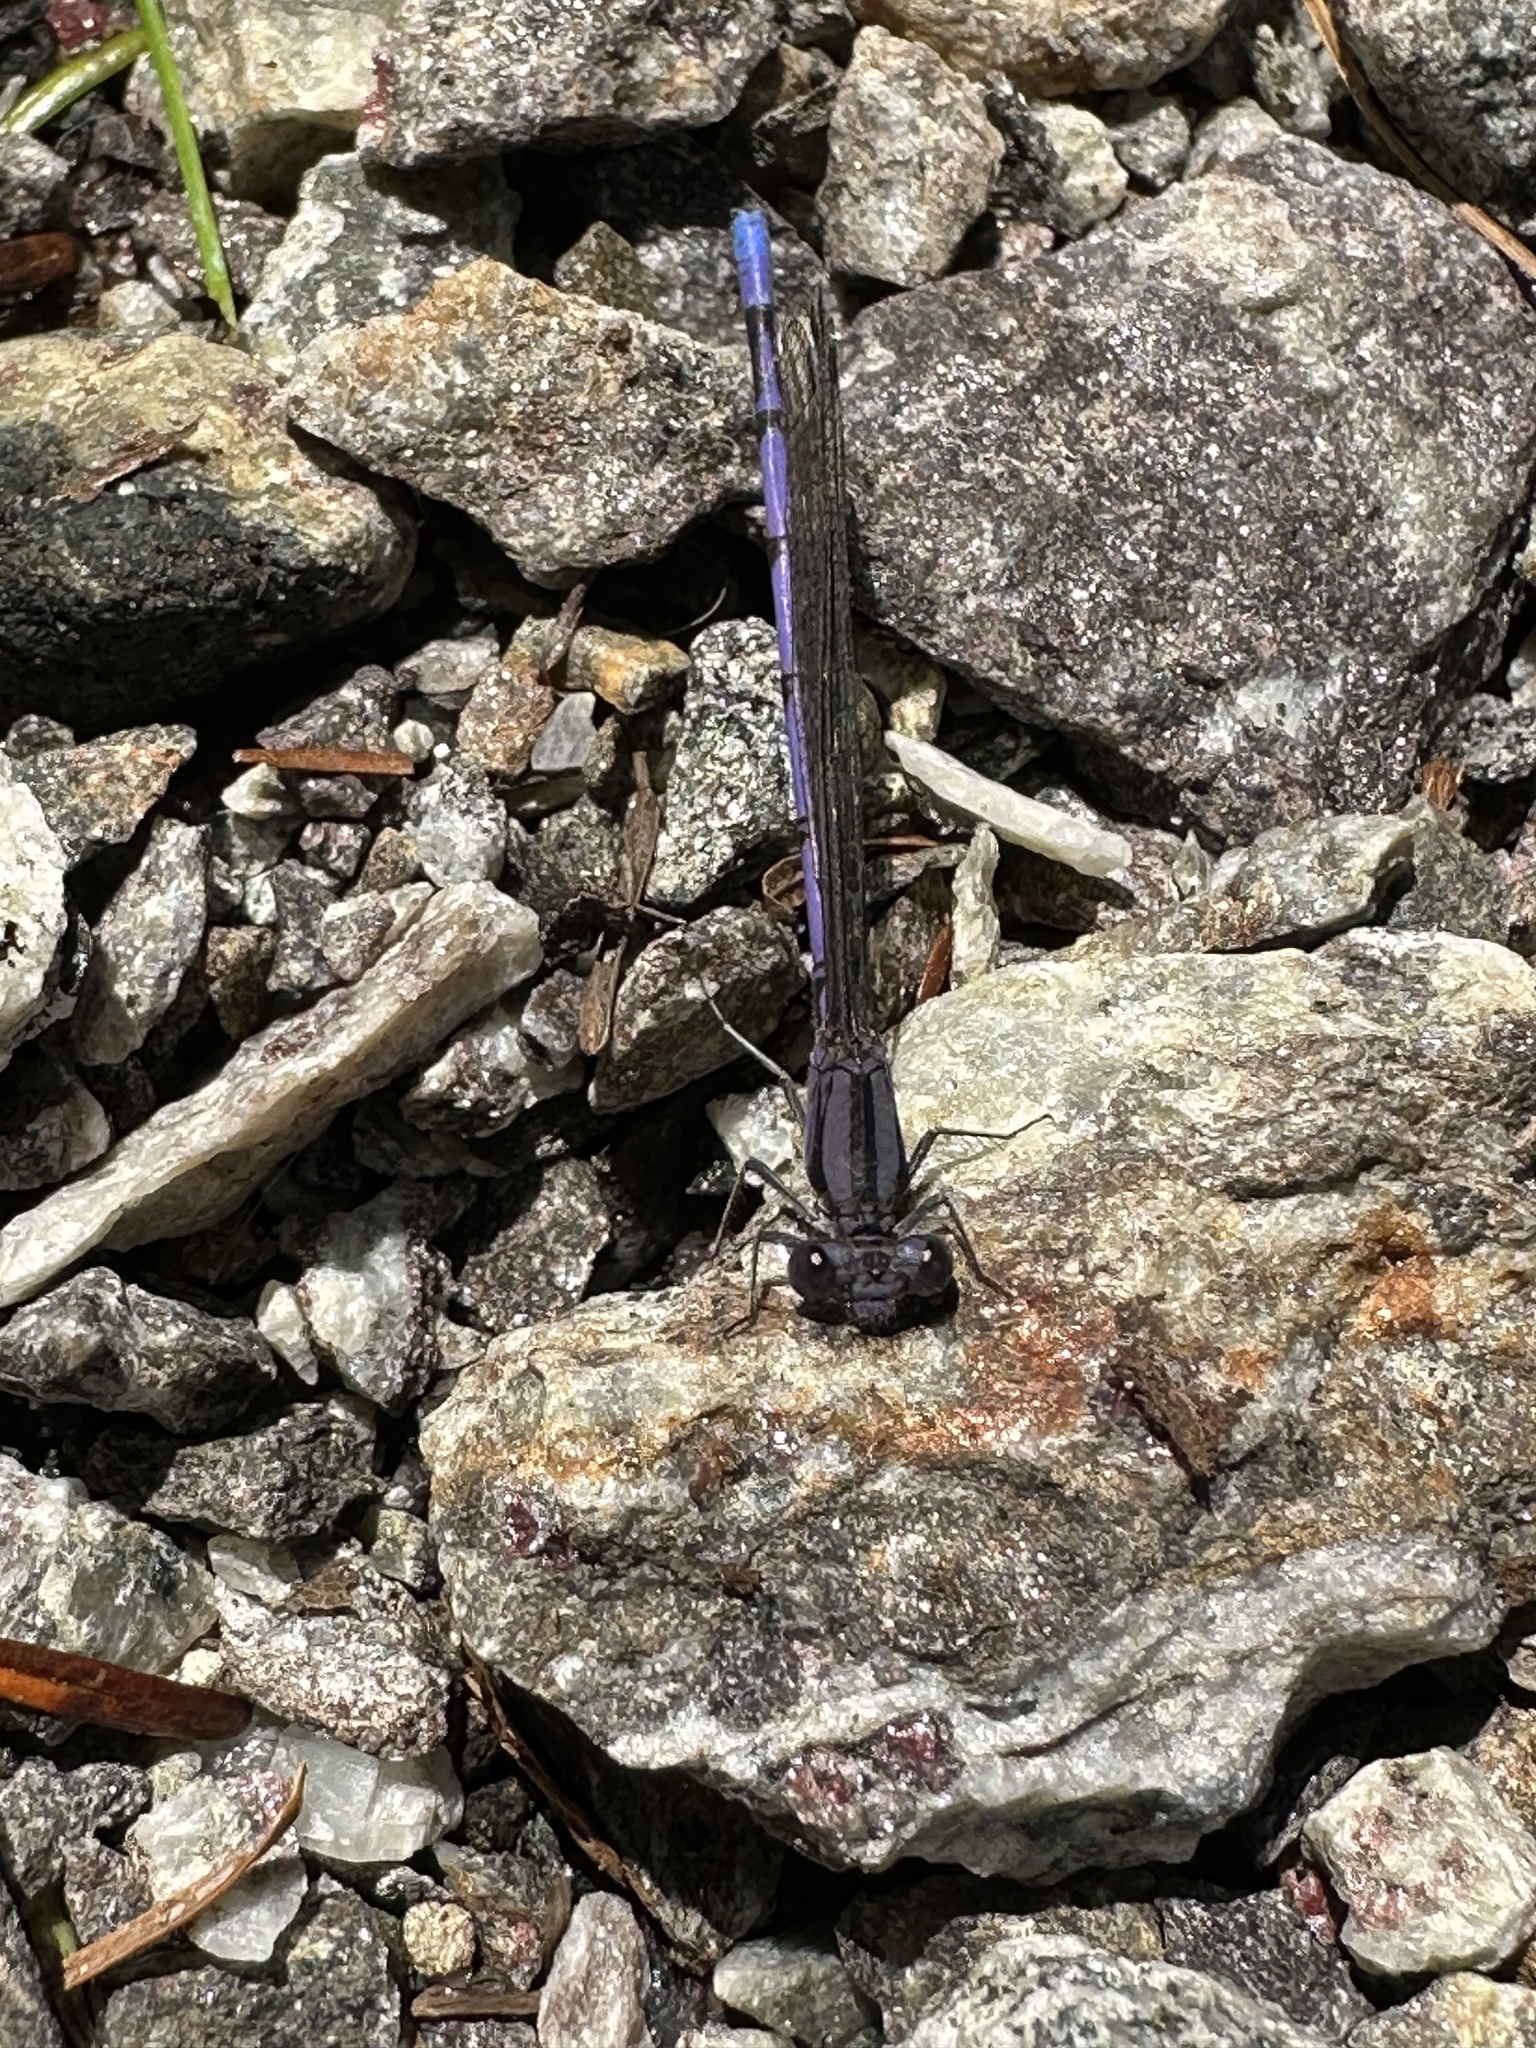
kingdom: Animalia
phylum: Arthropoda
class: Insecta
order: Odonata
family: Coenagrionidae
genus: Argia
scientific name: Argia fumipennis
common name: Variable dancer
